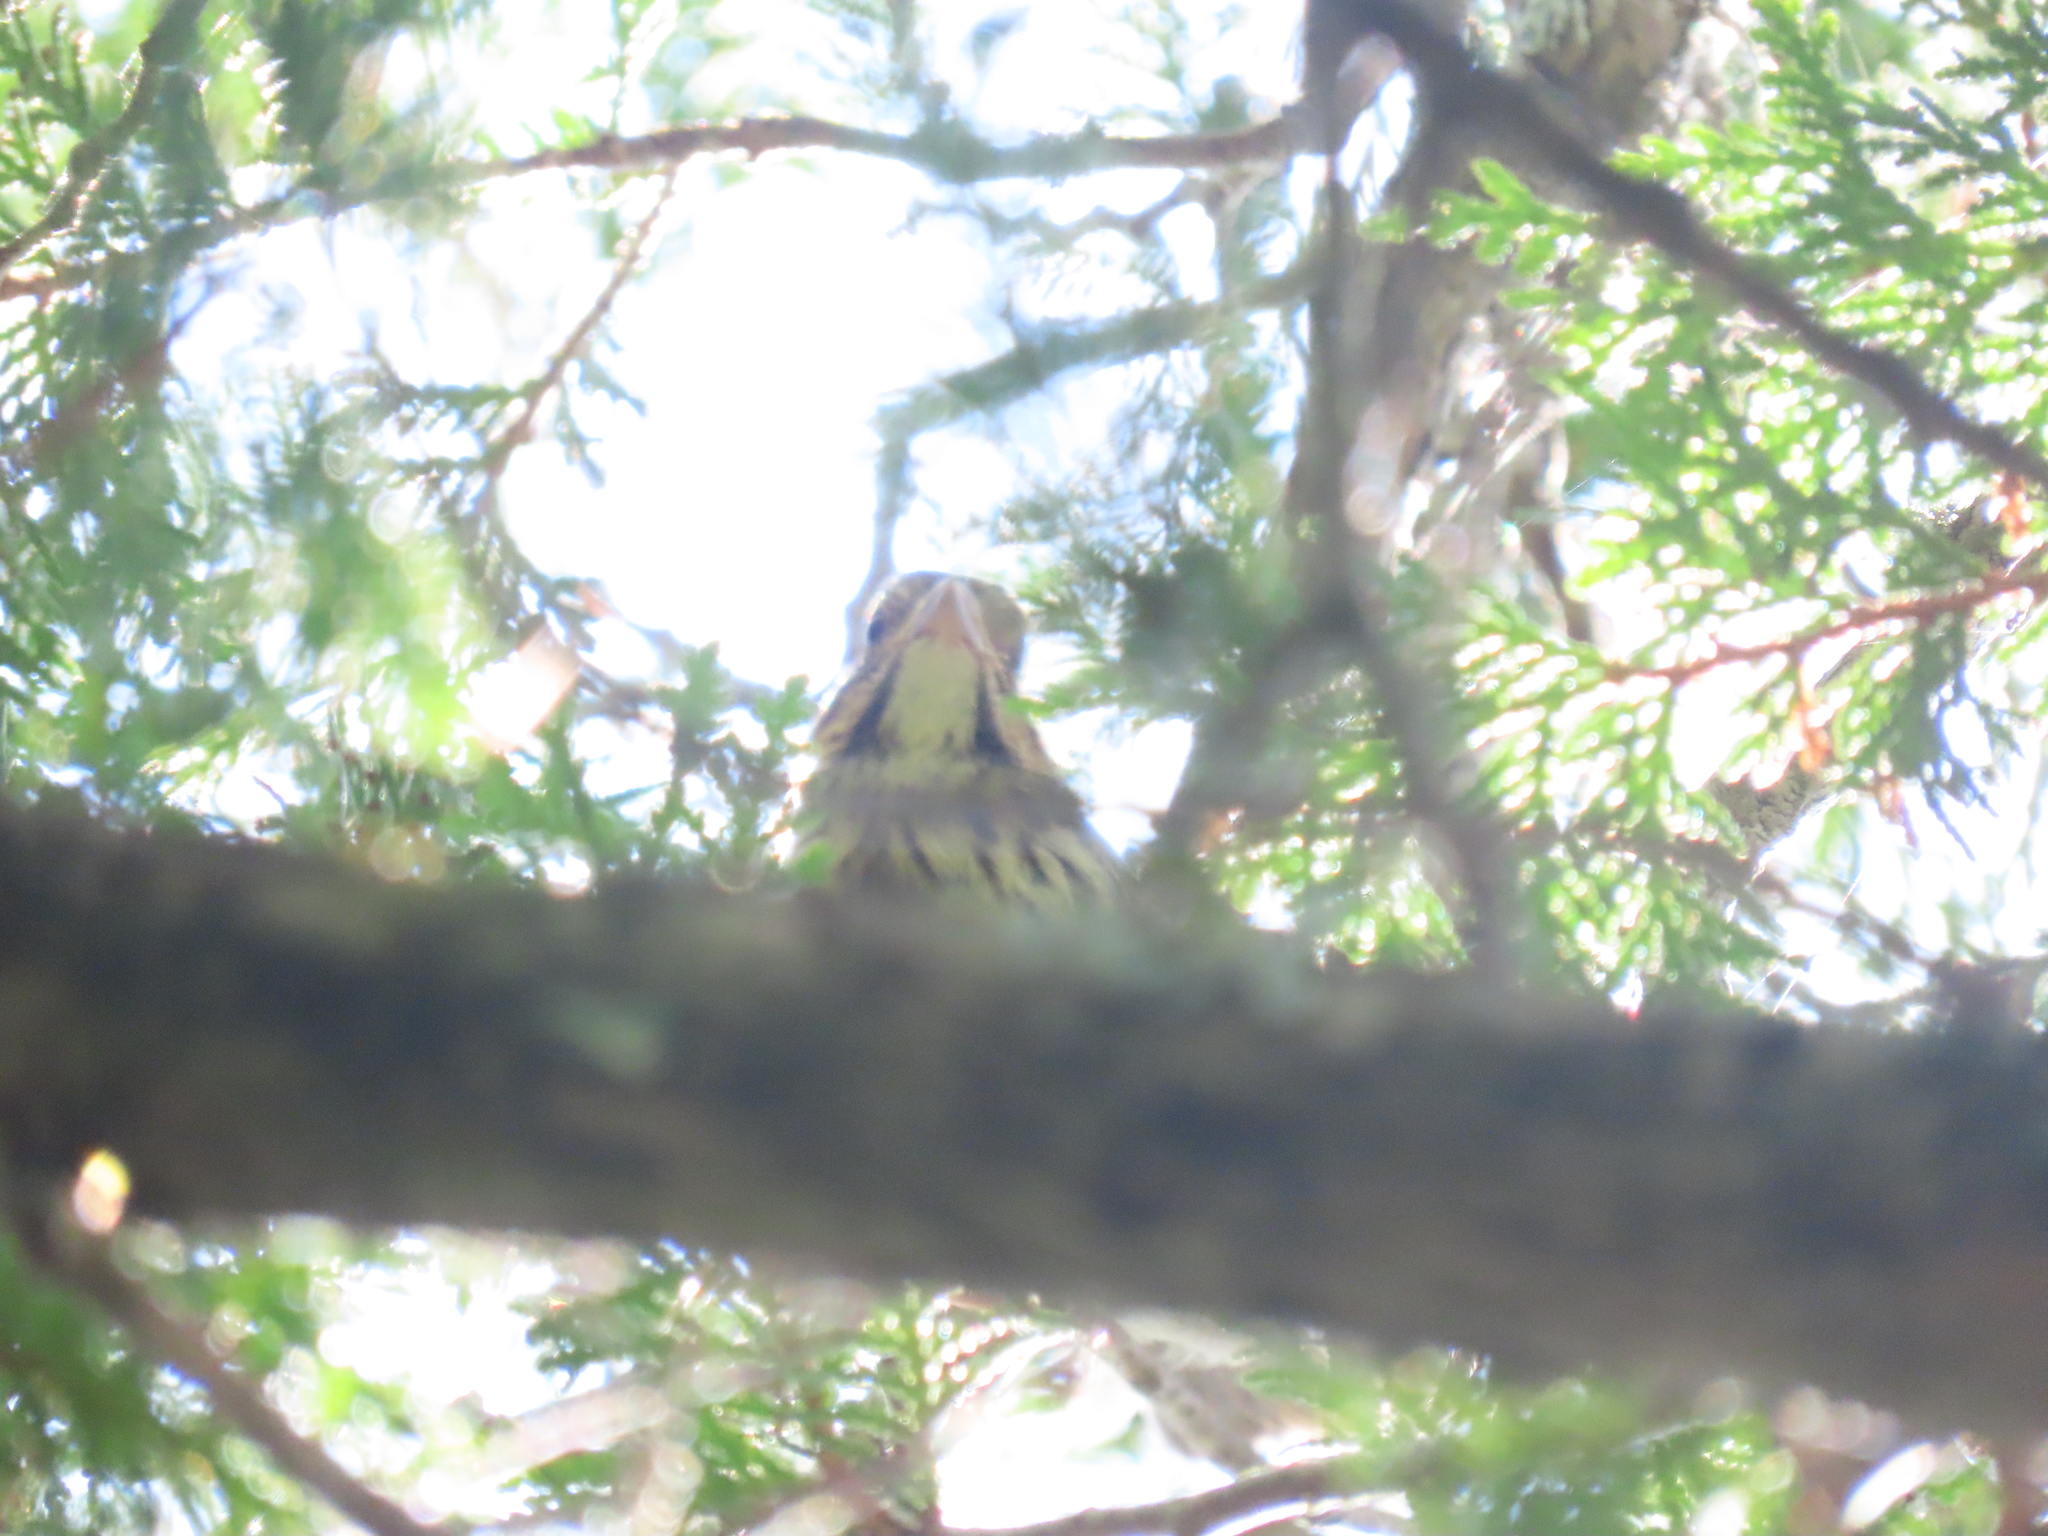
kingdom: Animalia
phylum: Chordata
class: Aves
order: Passeriformes
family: Passerellidae
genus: Melospiza
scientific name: Melospiza lincolnii
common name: Lincoln's sparrow
